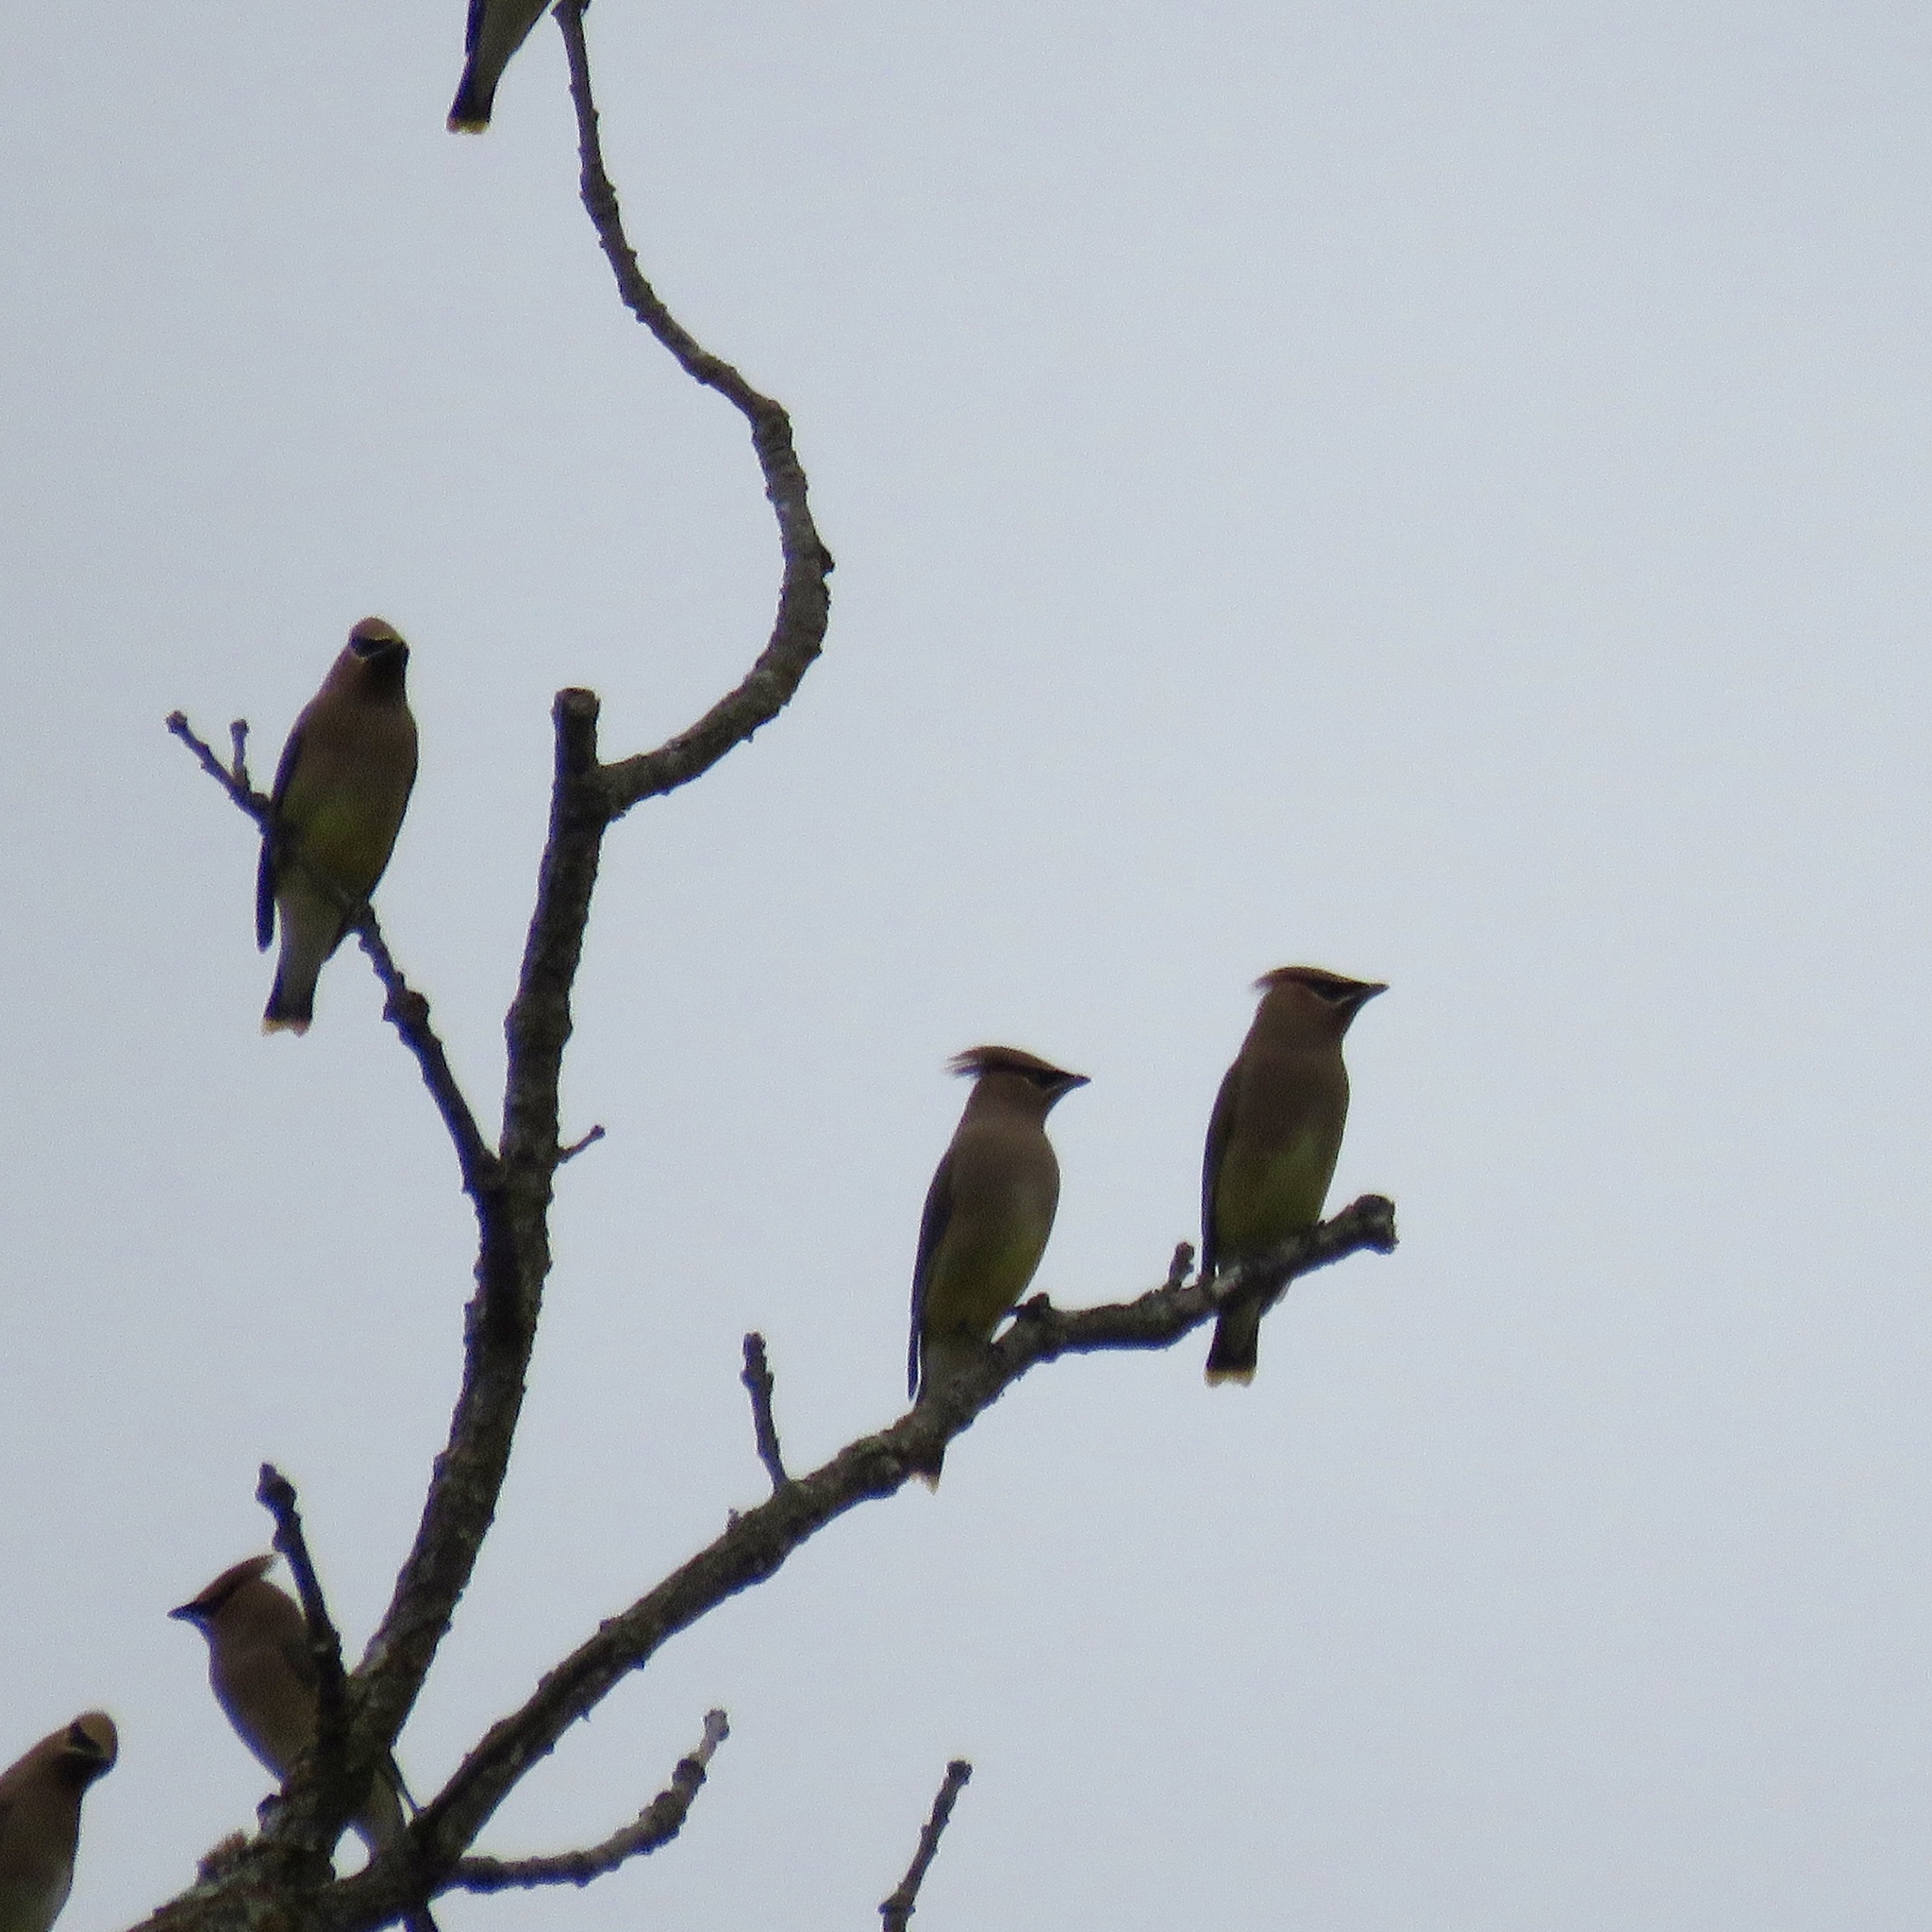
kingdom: Animalia
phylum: Chordata
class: Aves
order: Passeriformes
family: Bombycillidae
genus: Bombycilla
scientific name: Bombycilla cedrorum
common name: Cedar waxwing
